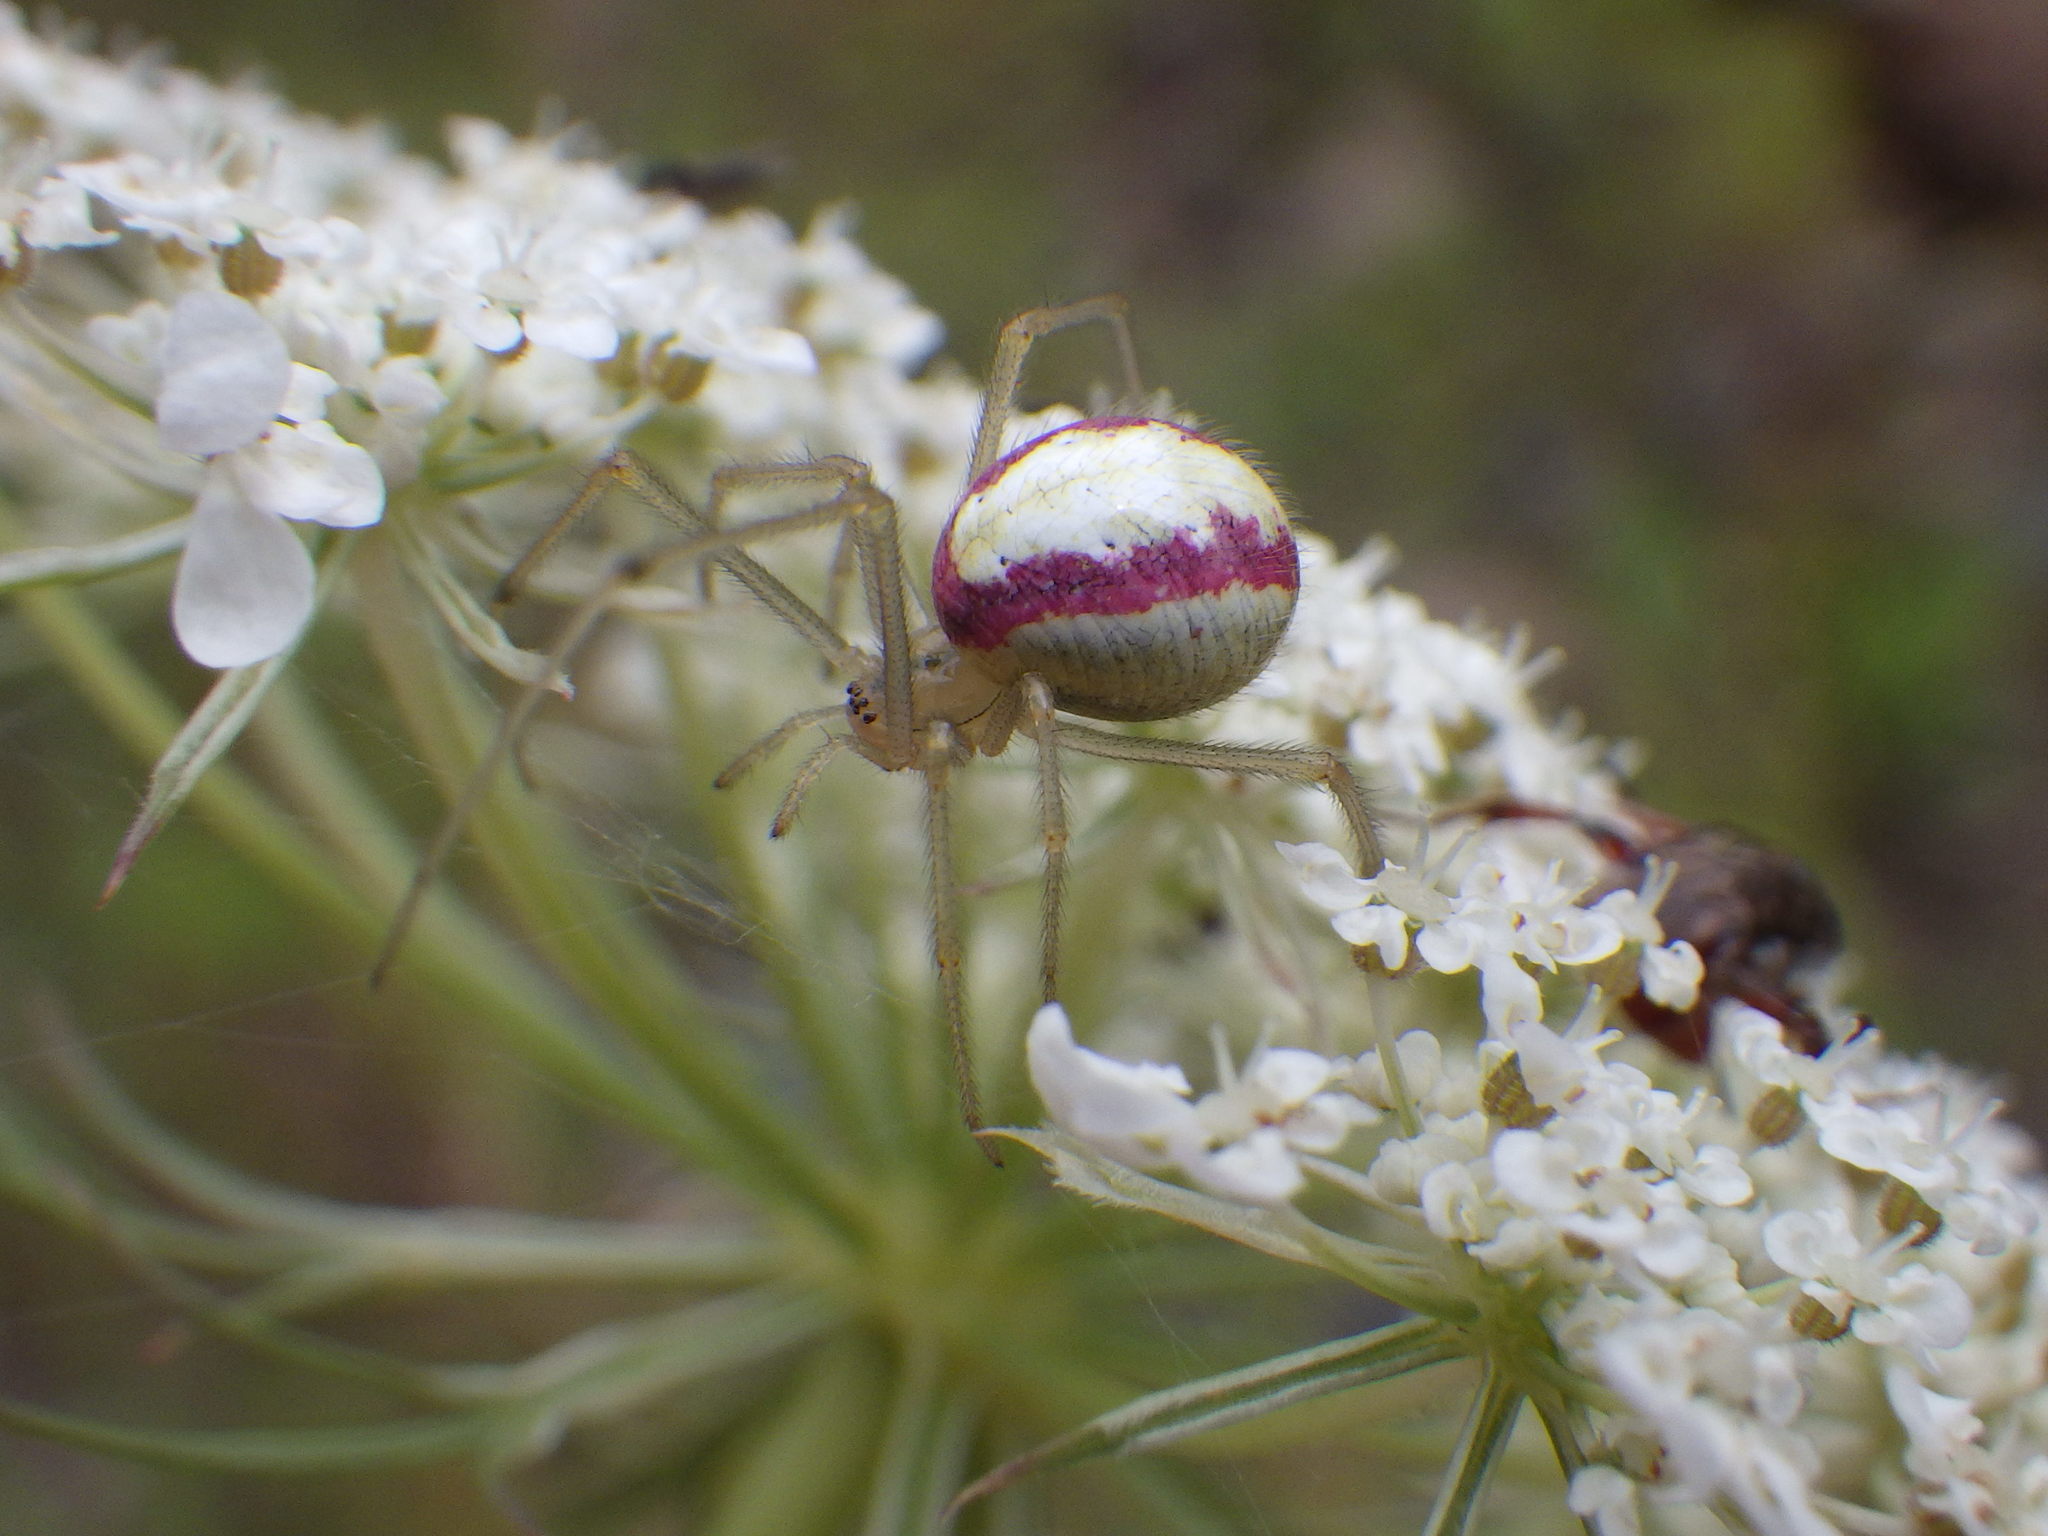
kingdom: Animalia
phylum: Arthropoda
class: Arachnida
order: Araneae
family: Theridiidae
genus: Enoplognatha
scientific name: Enoplognatha ovata
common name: Common candy-striped spider
